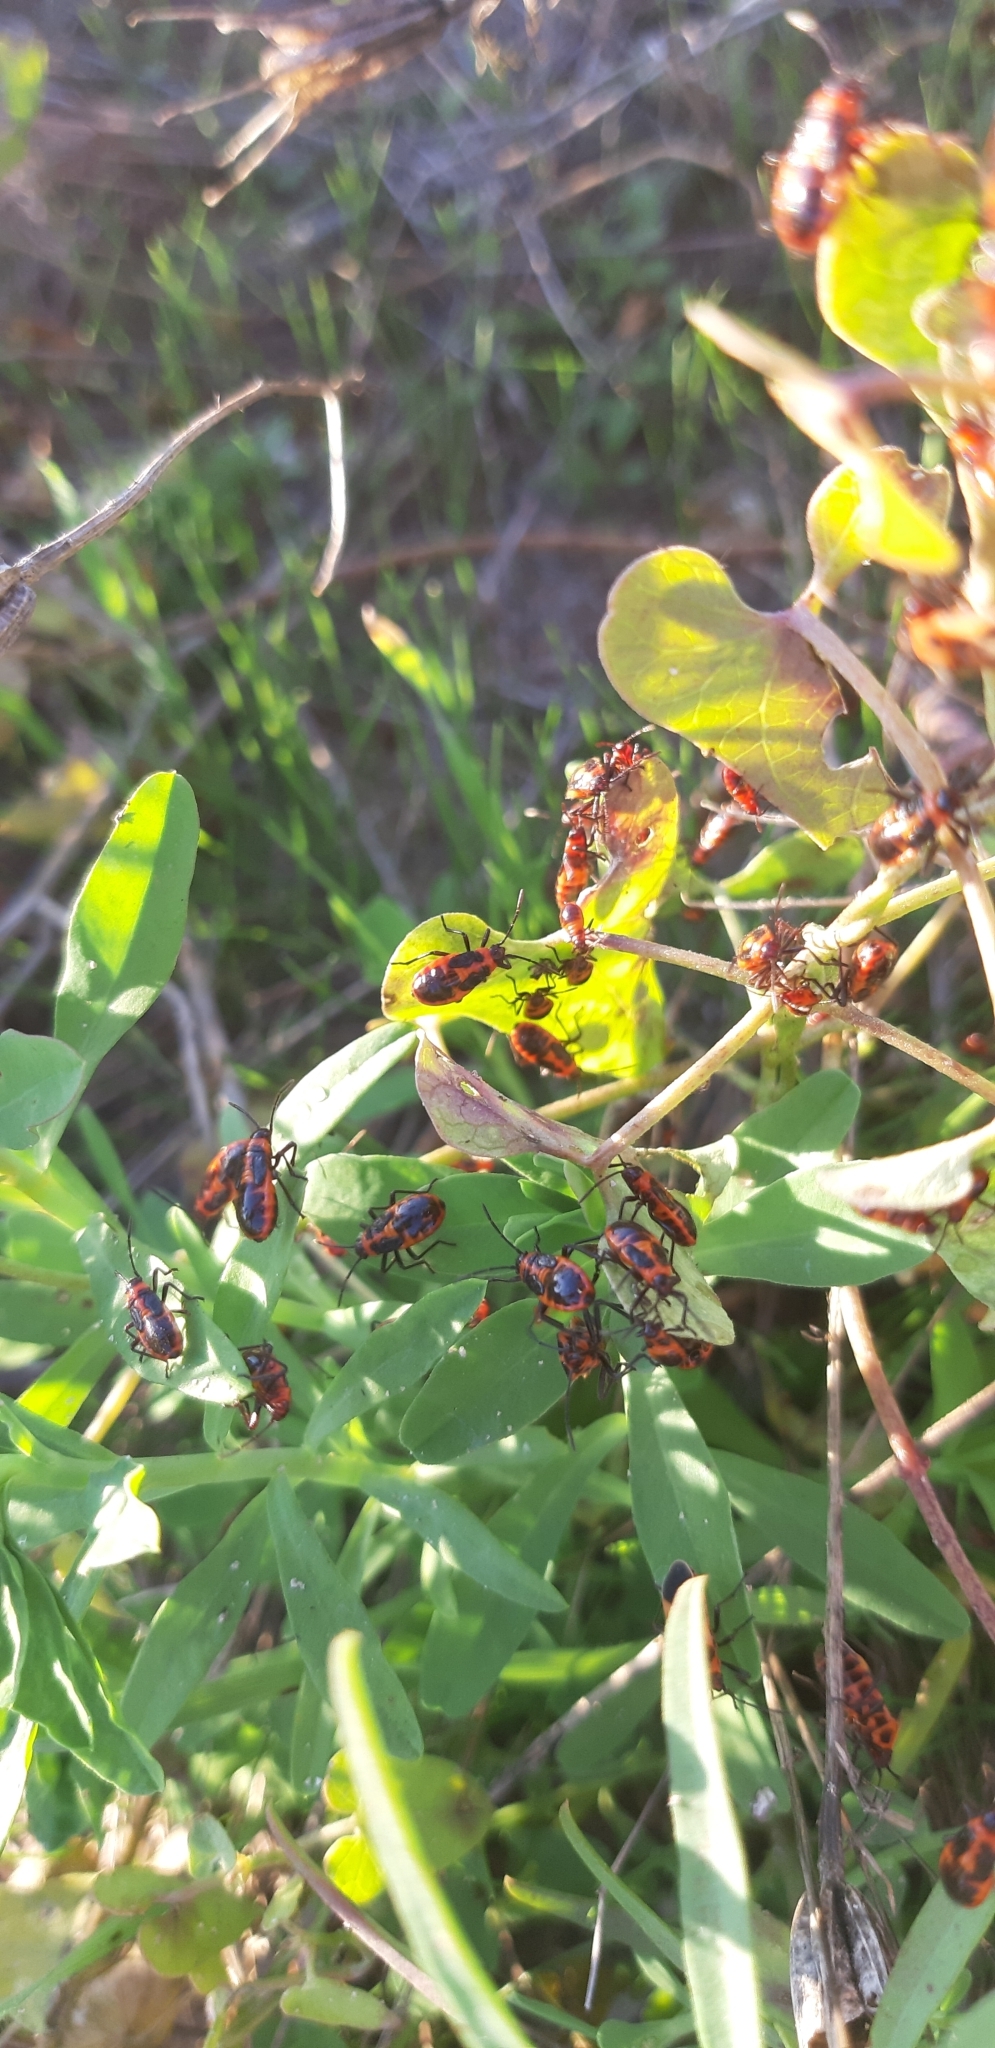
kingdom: Animalia
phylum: Arthropoda
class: Insecta
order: Hemiptera
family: Lygaeidae
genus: Tropidothorax
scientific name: Tropidothorax leucopterus
